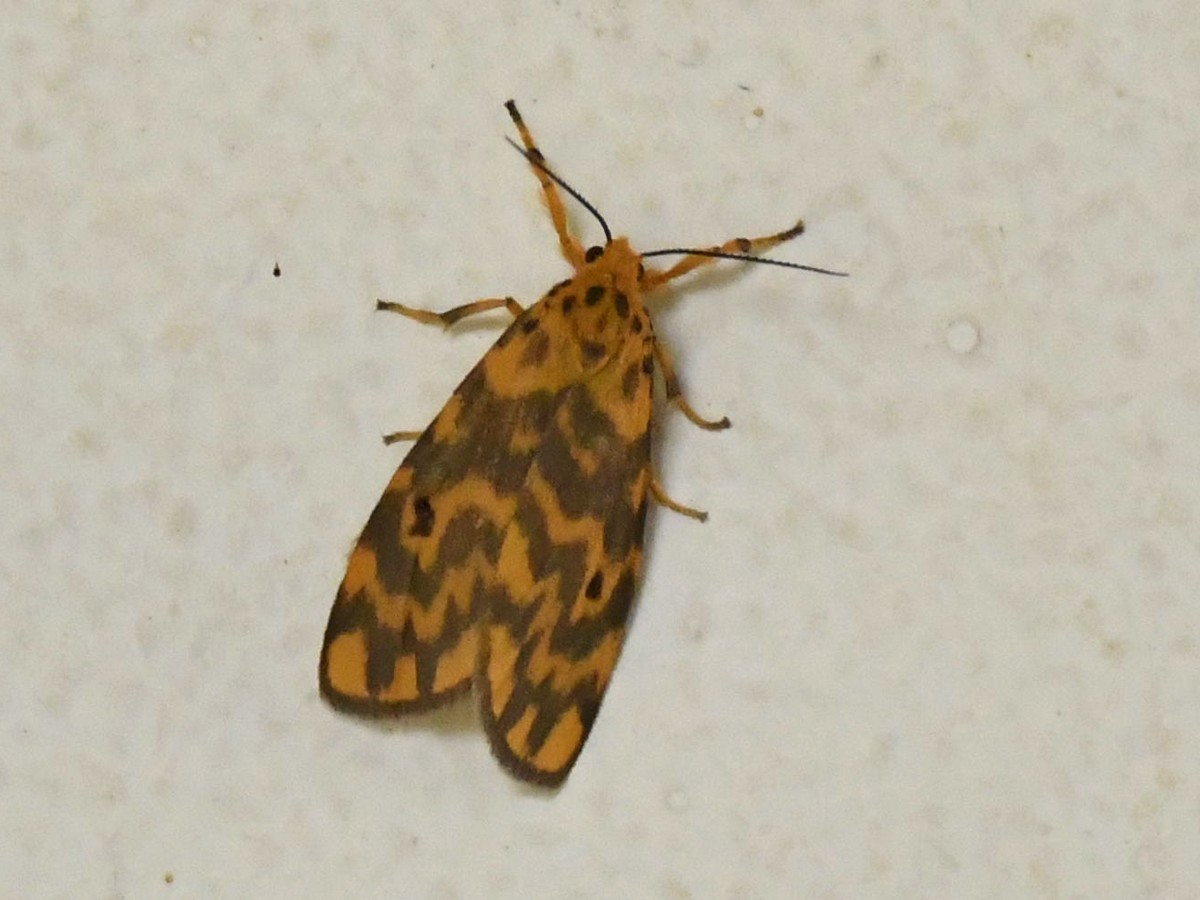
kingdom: Animalia
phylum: Arthropoda
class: Insecta
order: Lepidoptera
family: Erebidae
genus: Nepita
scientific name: Nepita conferta
